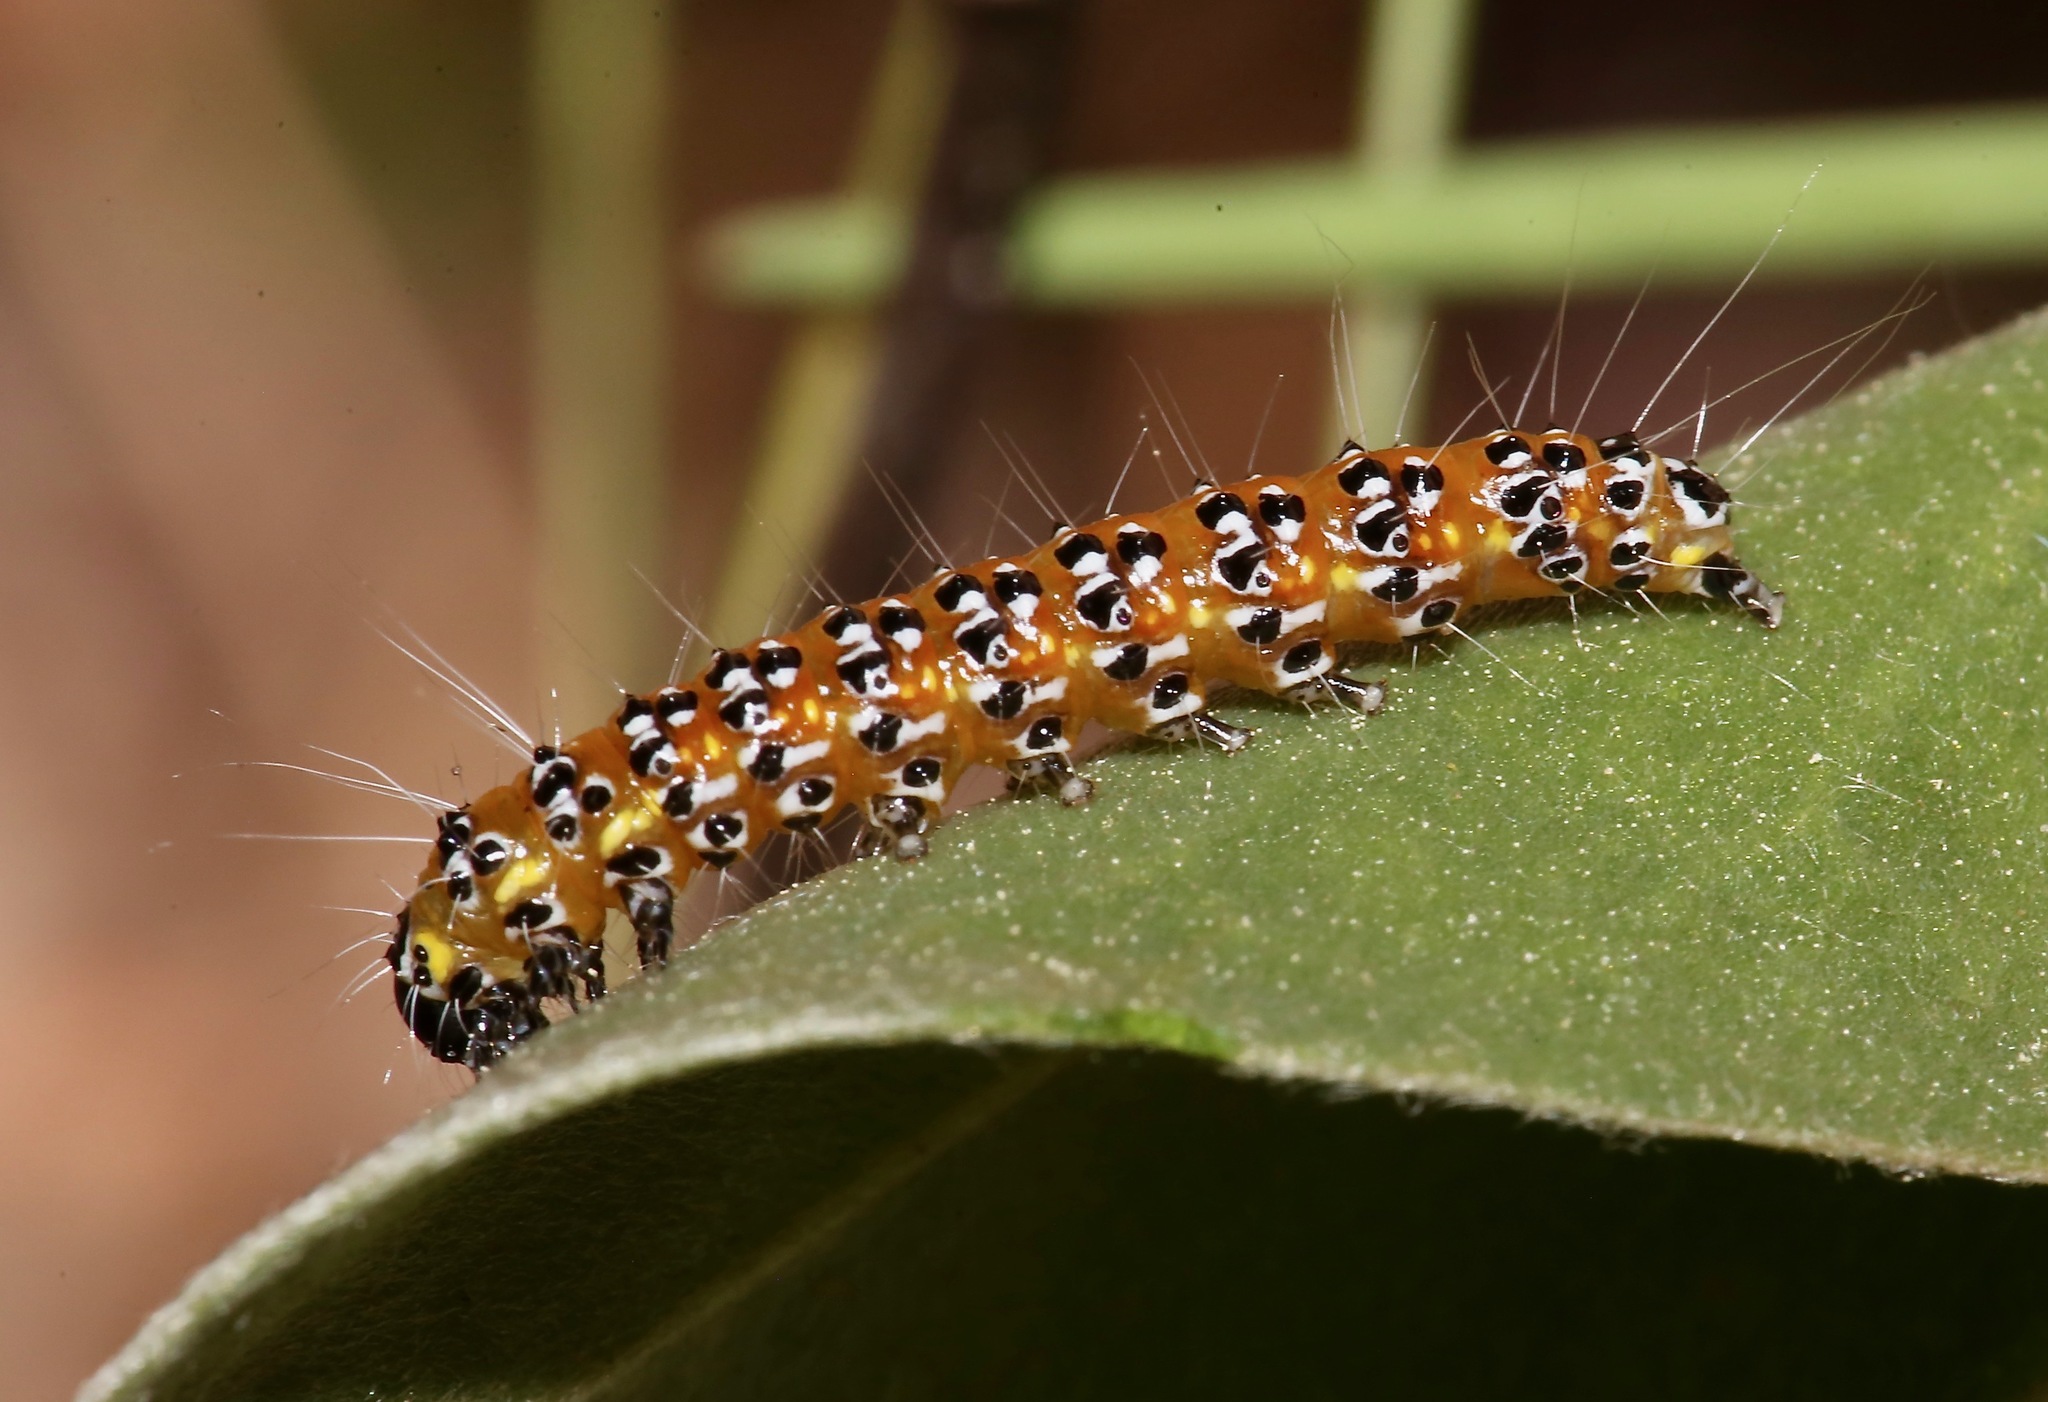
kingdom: Animalia
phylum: Arthropoda
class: Insecta
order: Lepidoptera
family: Crambidae
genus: Uresiphita
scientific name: Uresiphita reversalis
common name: Genista broom moth
